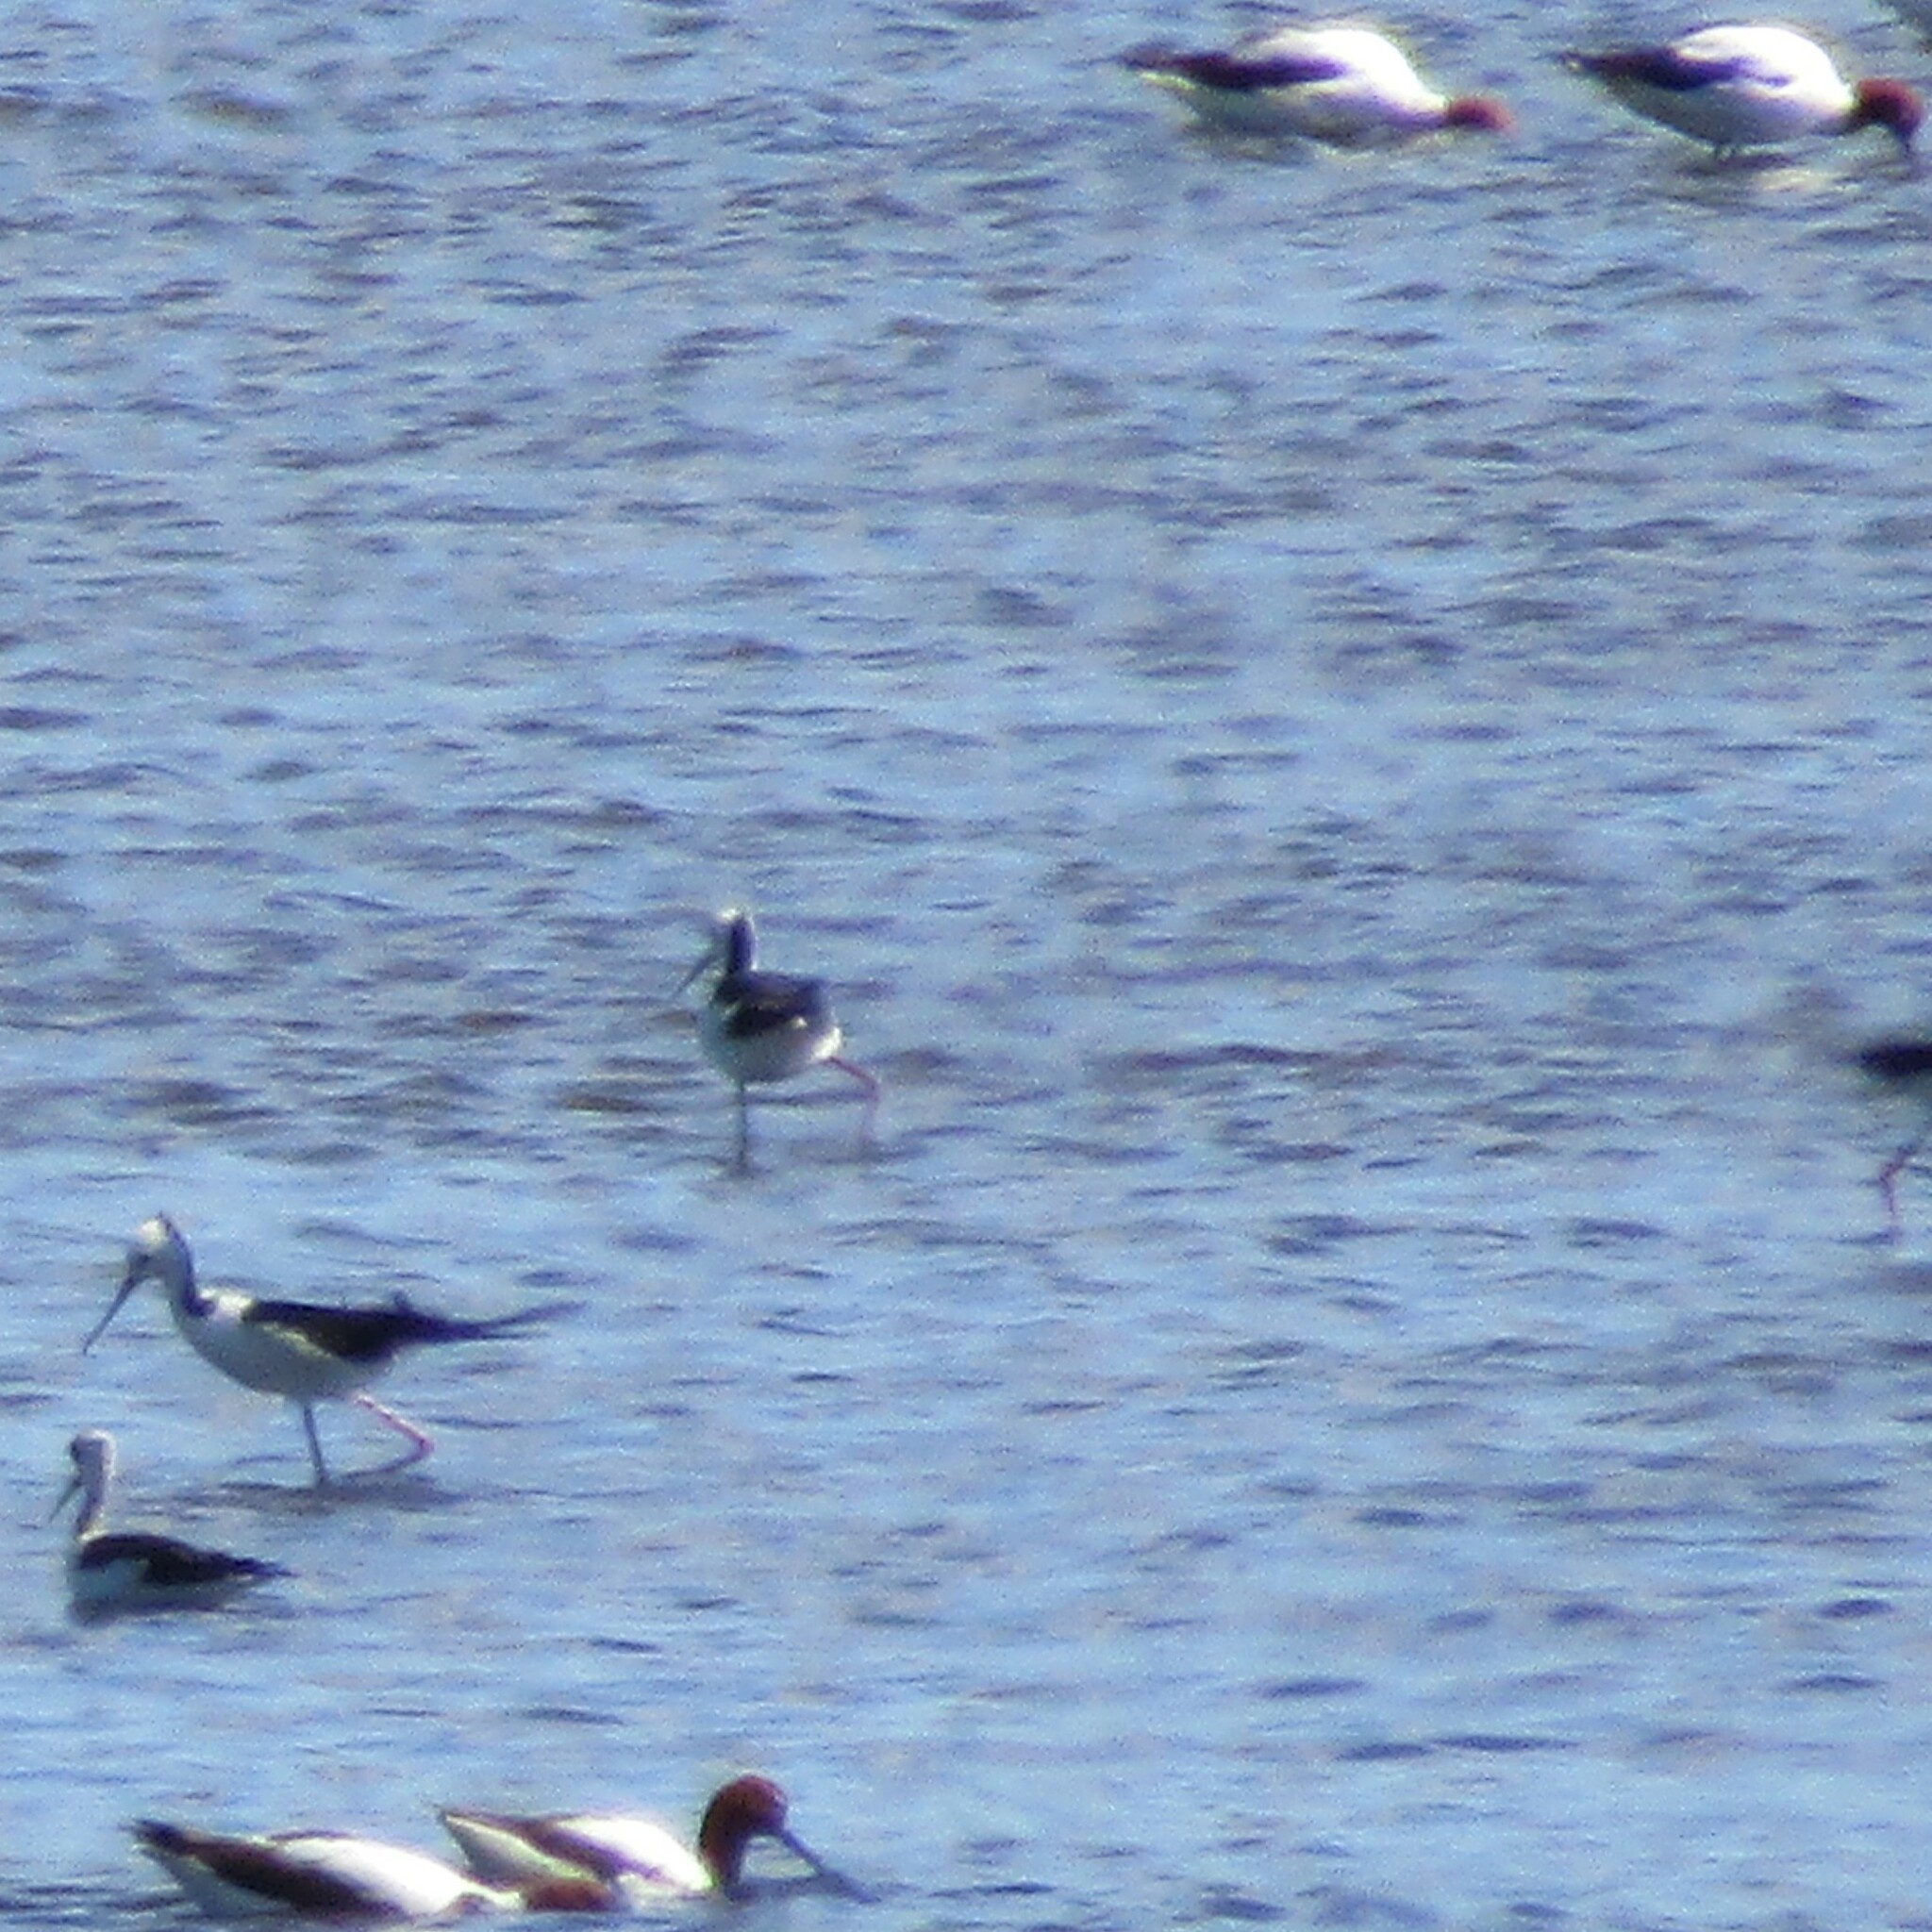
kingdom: Animalia
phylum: Chordata
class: Aves
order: Charadriiformes
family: Recurvirostridae
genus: Recurvirostra
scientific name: Recurvirostra novaehollandiae
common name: Red-necked avocet
